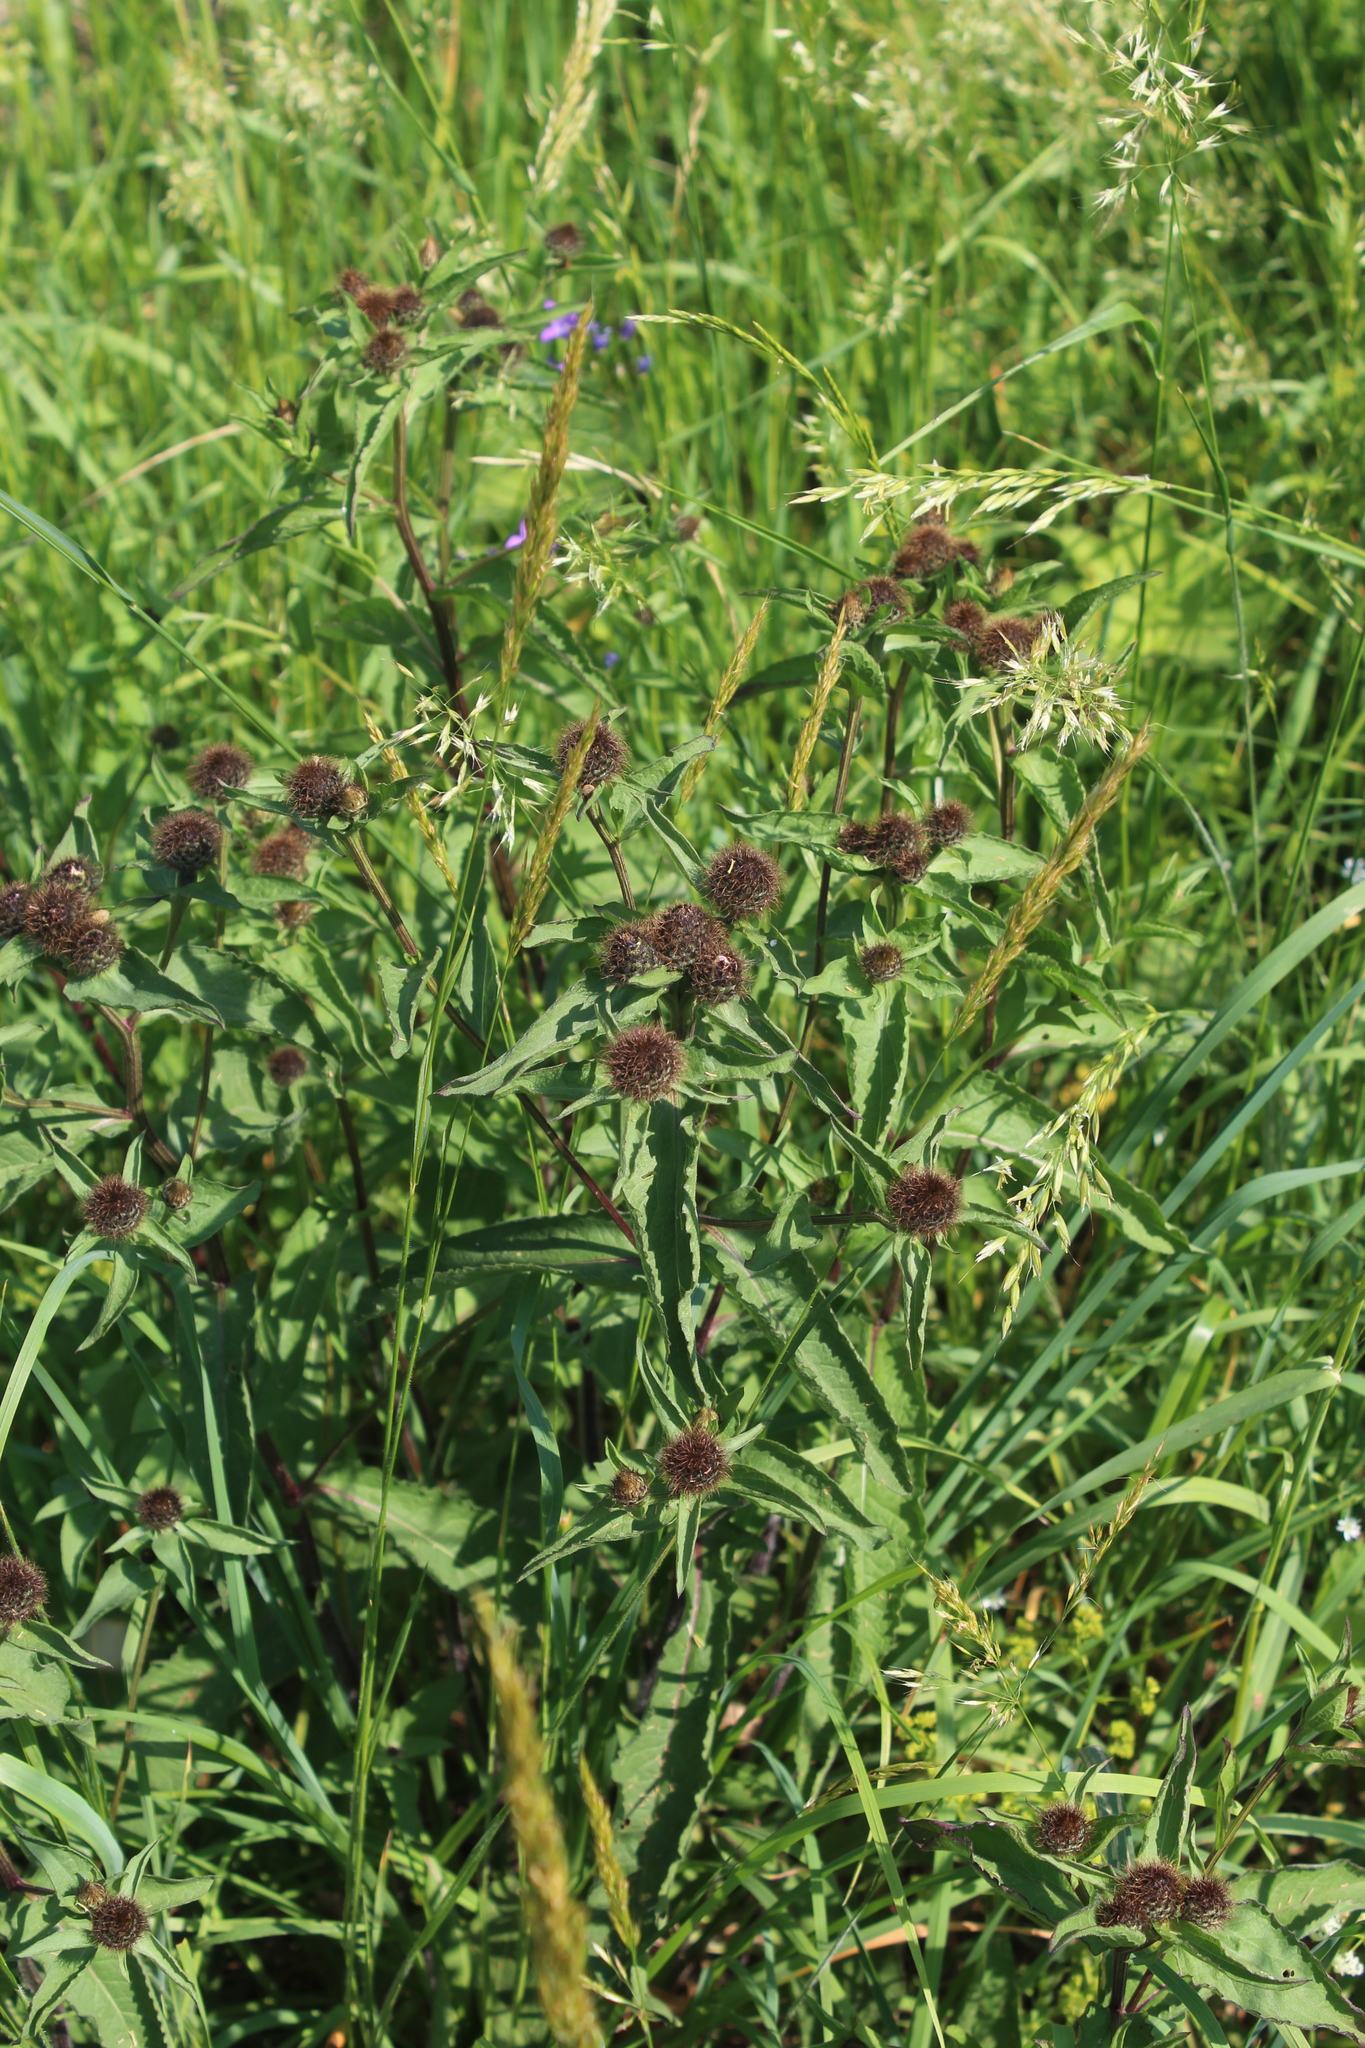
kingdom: Plantae
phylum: Tracheophyta
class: Magnoliopsida
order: Asterales
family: Asteraceae
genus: Centaurea
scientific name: Centaurea pseudophrygia
